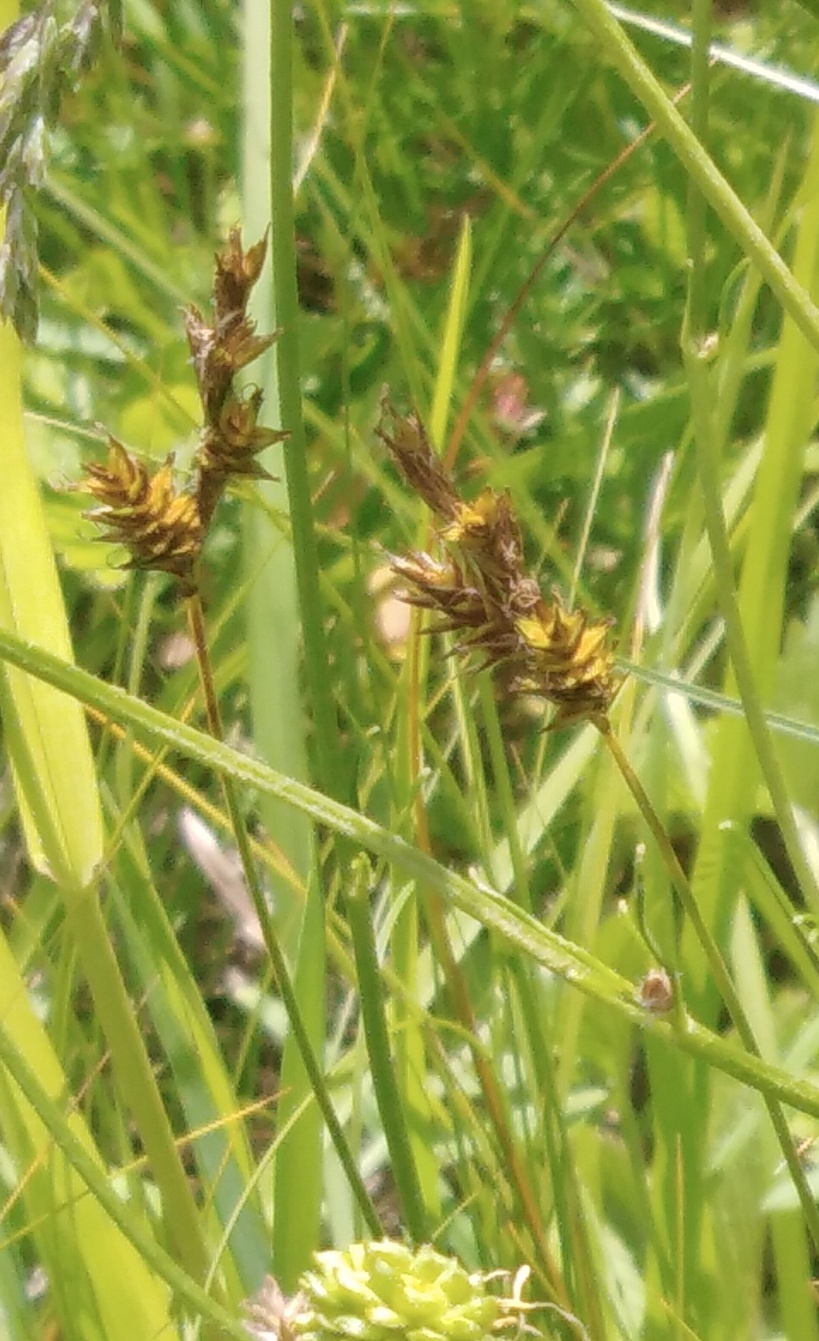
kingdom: Plantae
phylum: Tracheophyta
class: Liliopsida
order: Poales
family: Cyperaceae
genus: Carex
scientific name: Carex praecox
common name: Early sedge
